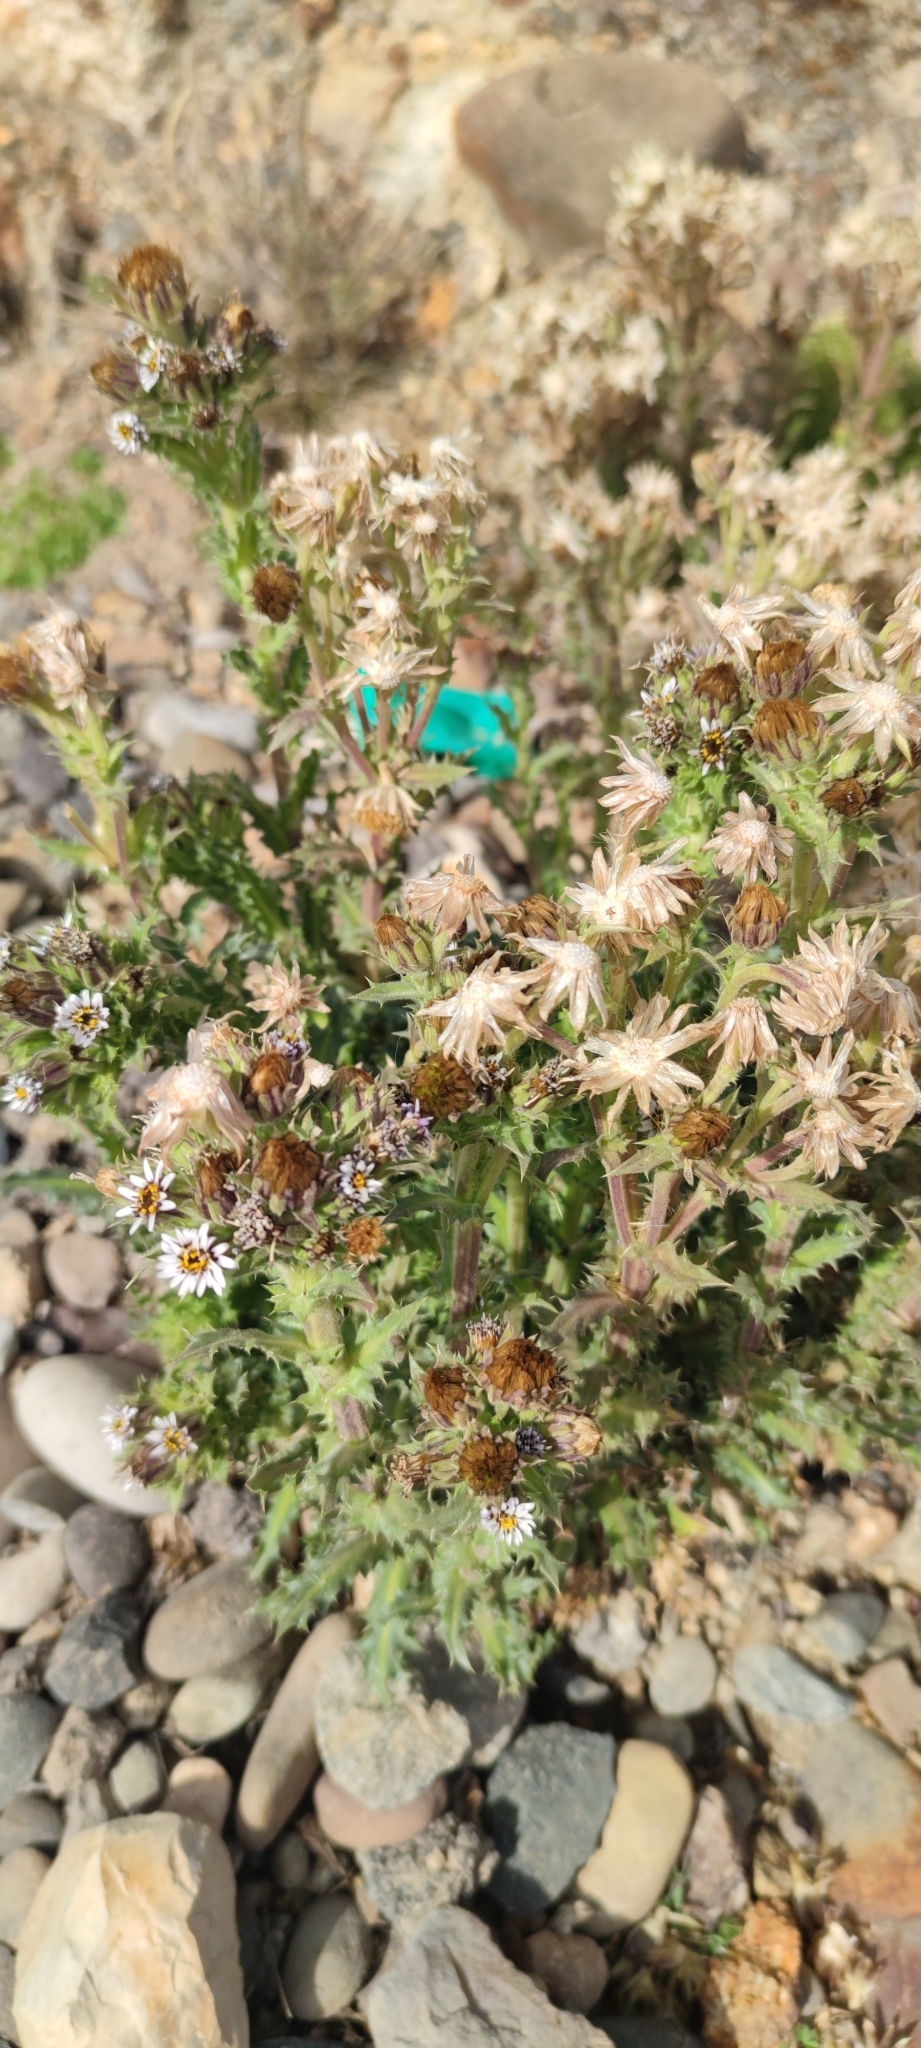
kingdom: Plantae
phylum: Tracheophyta
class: Magnoliopsida
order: Asterales
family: Asteraceae
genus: Perezia
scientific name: Perezia multiflora
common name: Perezia
